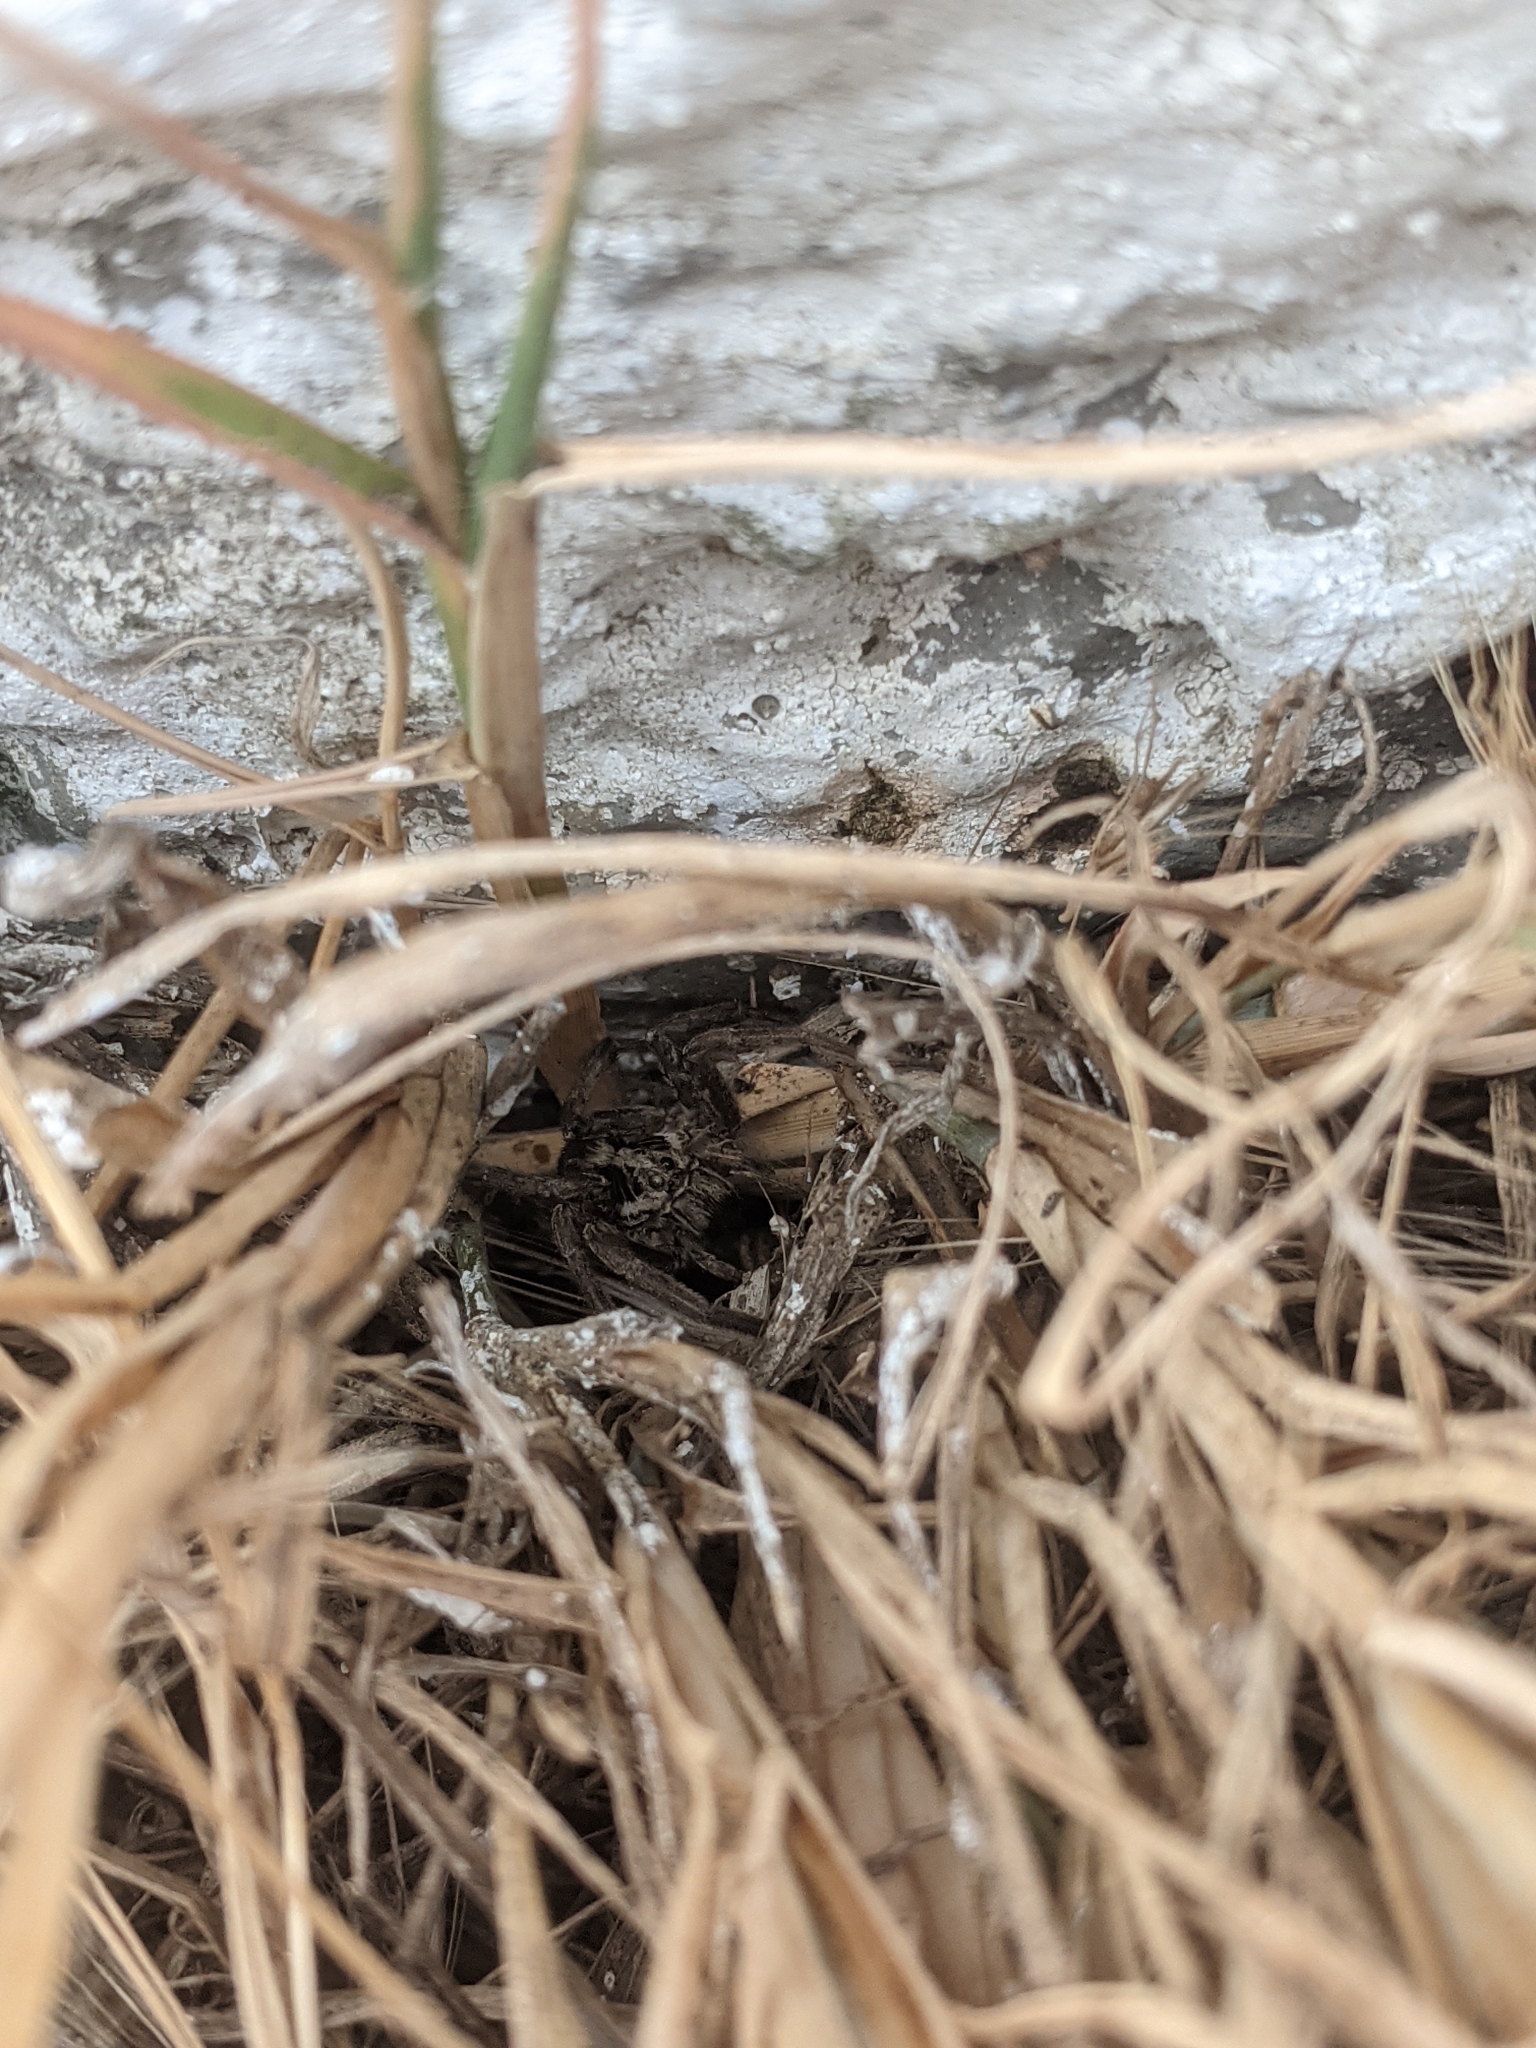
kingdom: Animalia
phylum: Arthropoda
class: Arachnida
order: Araneae
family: Lycosidae
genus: Hogna
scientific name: Hogna radiata
